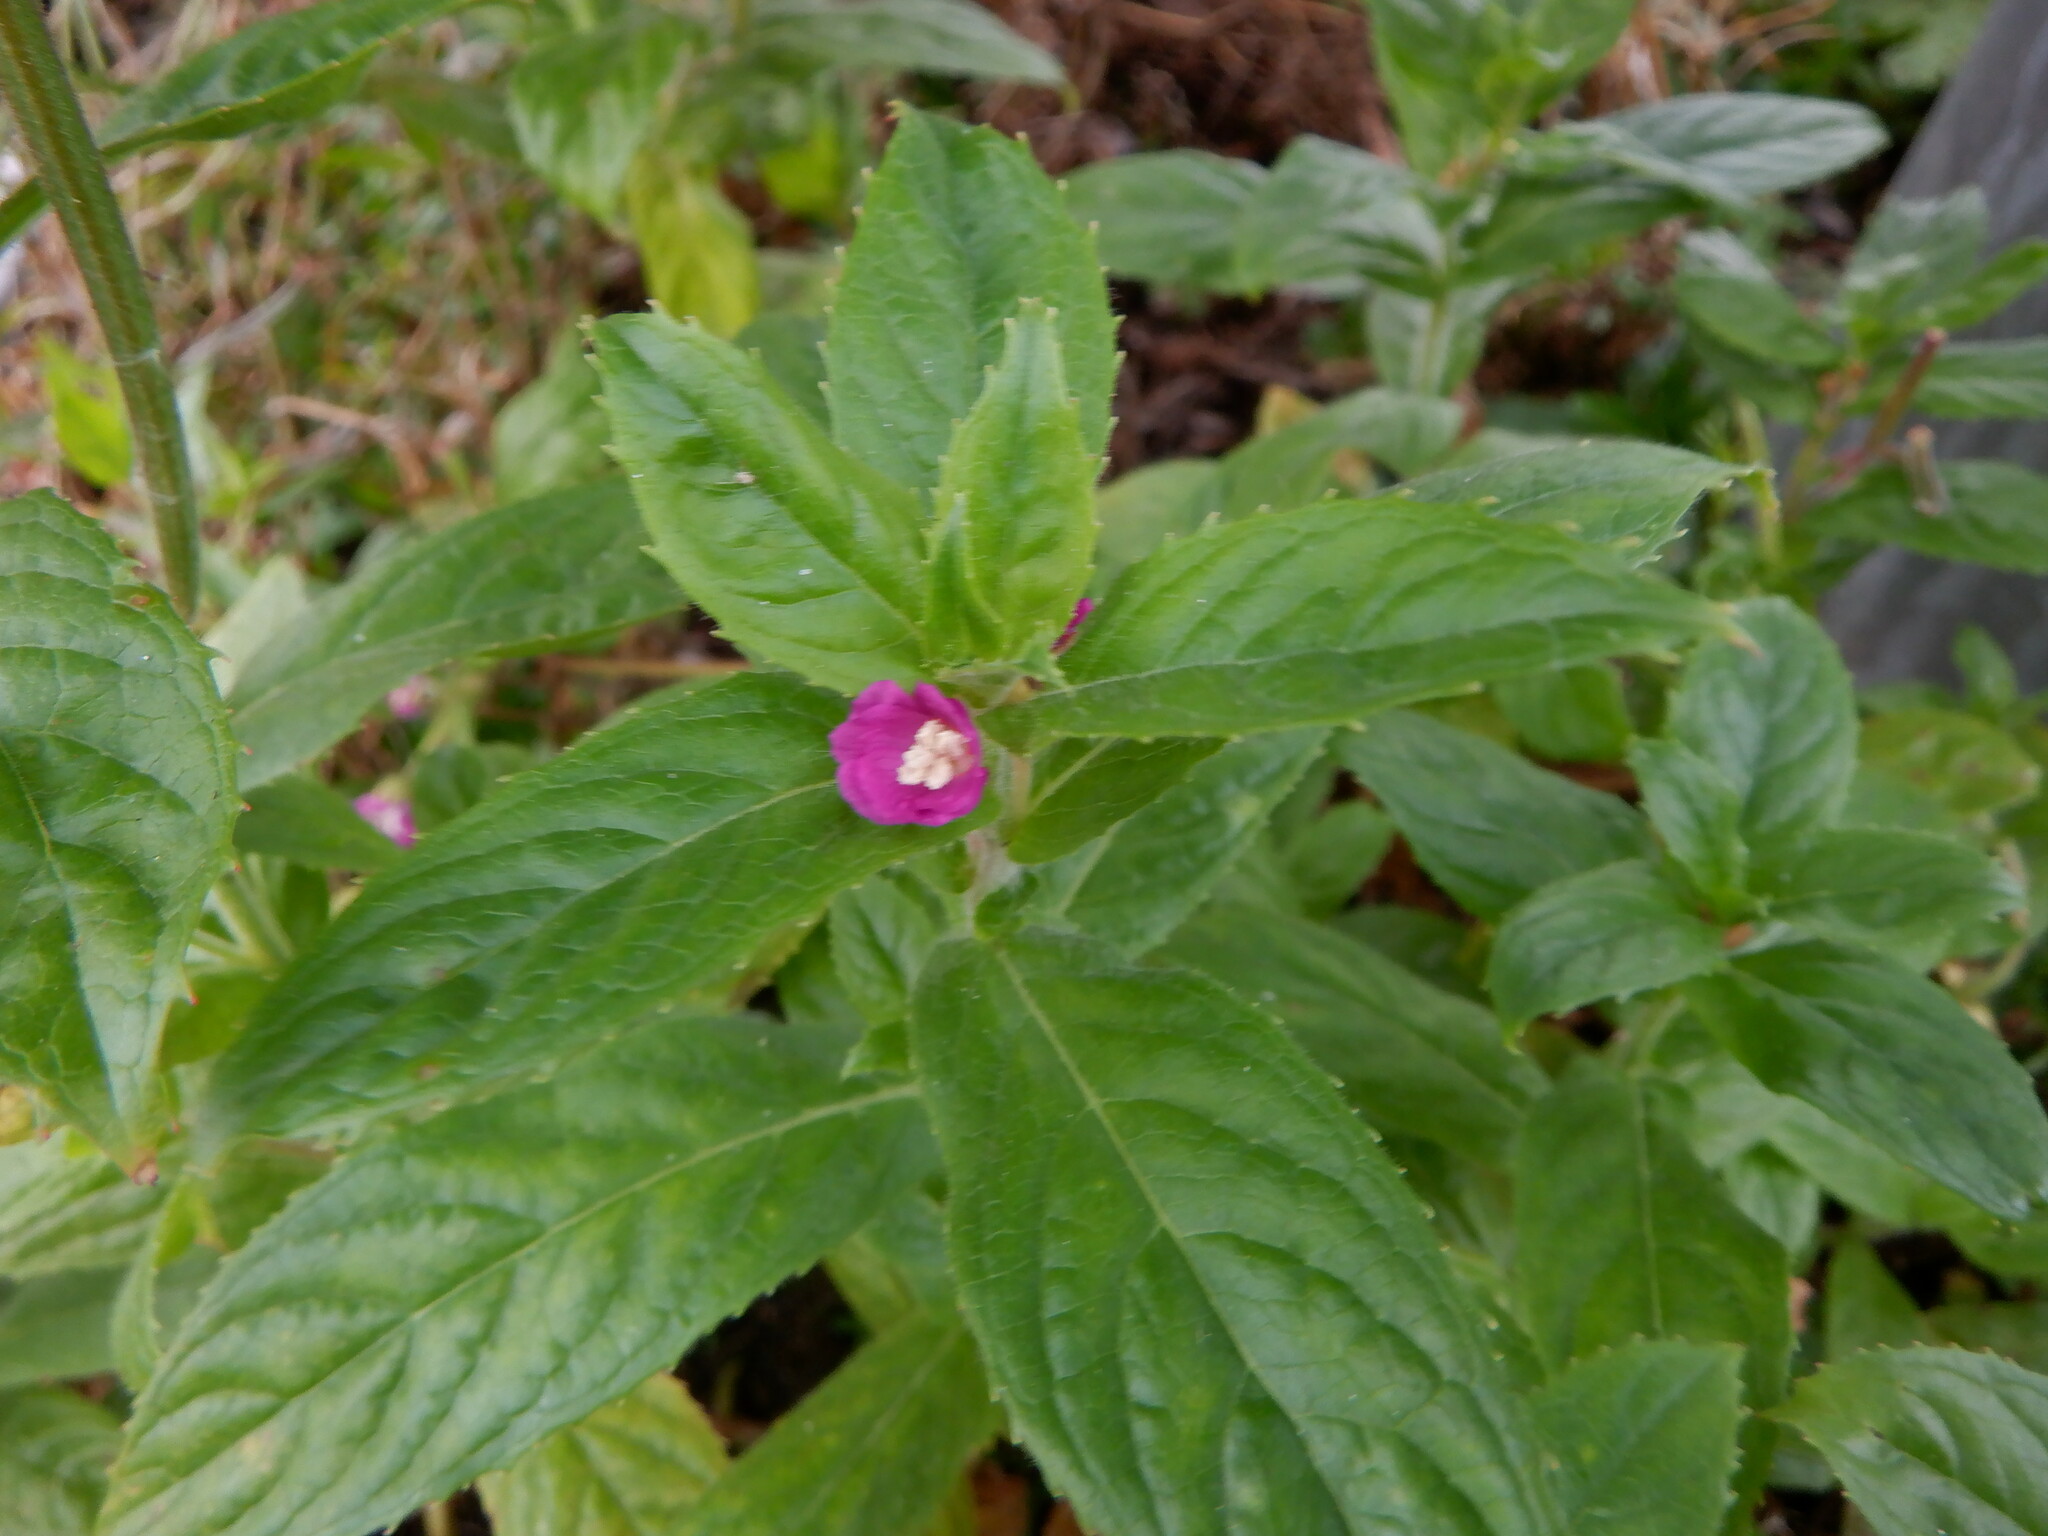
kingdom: Plantae
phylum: Tracheophyta
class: Magnoliopsida
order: Myrtales
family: Onagraceae
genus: Epilobium
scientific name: Epilobium hirsutum
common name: Great willowherb
